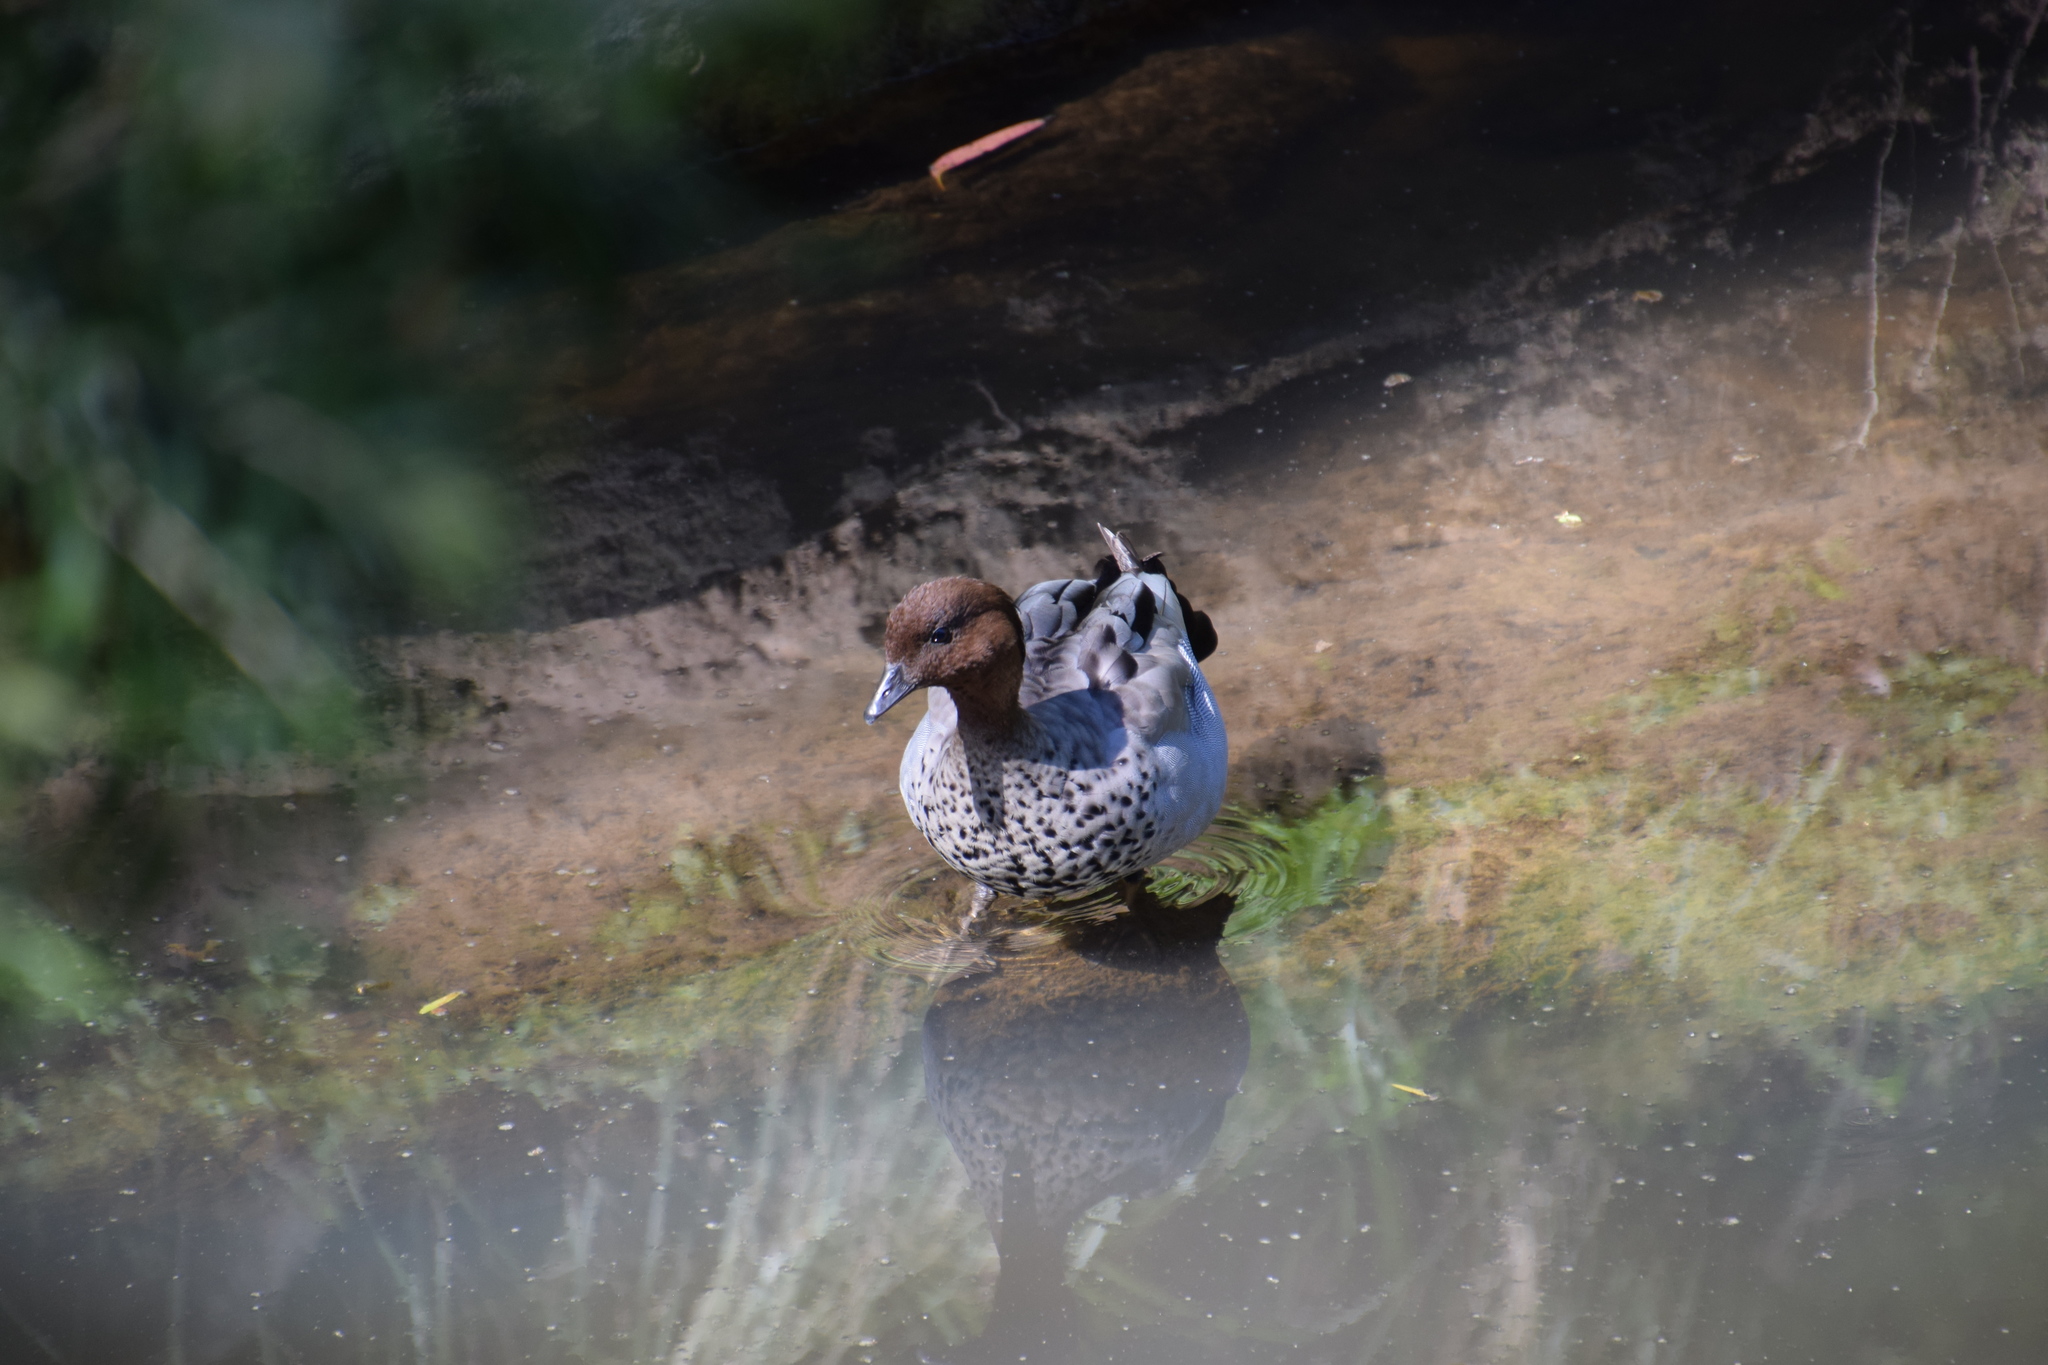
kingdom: Animalia
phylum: Chordata
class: Aves
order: Anseriformes
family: Anatidae
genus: Chenonetta
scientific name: Chenonetta jubata
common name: Maned duck
